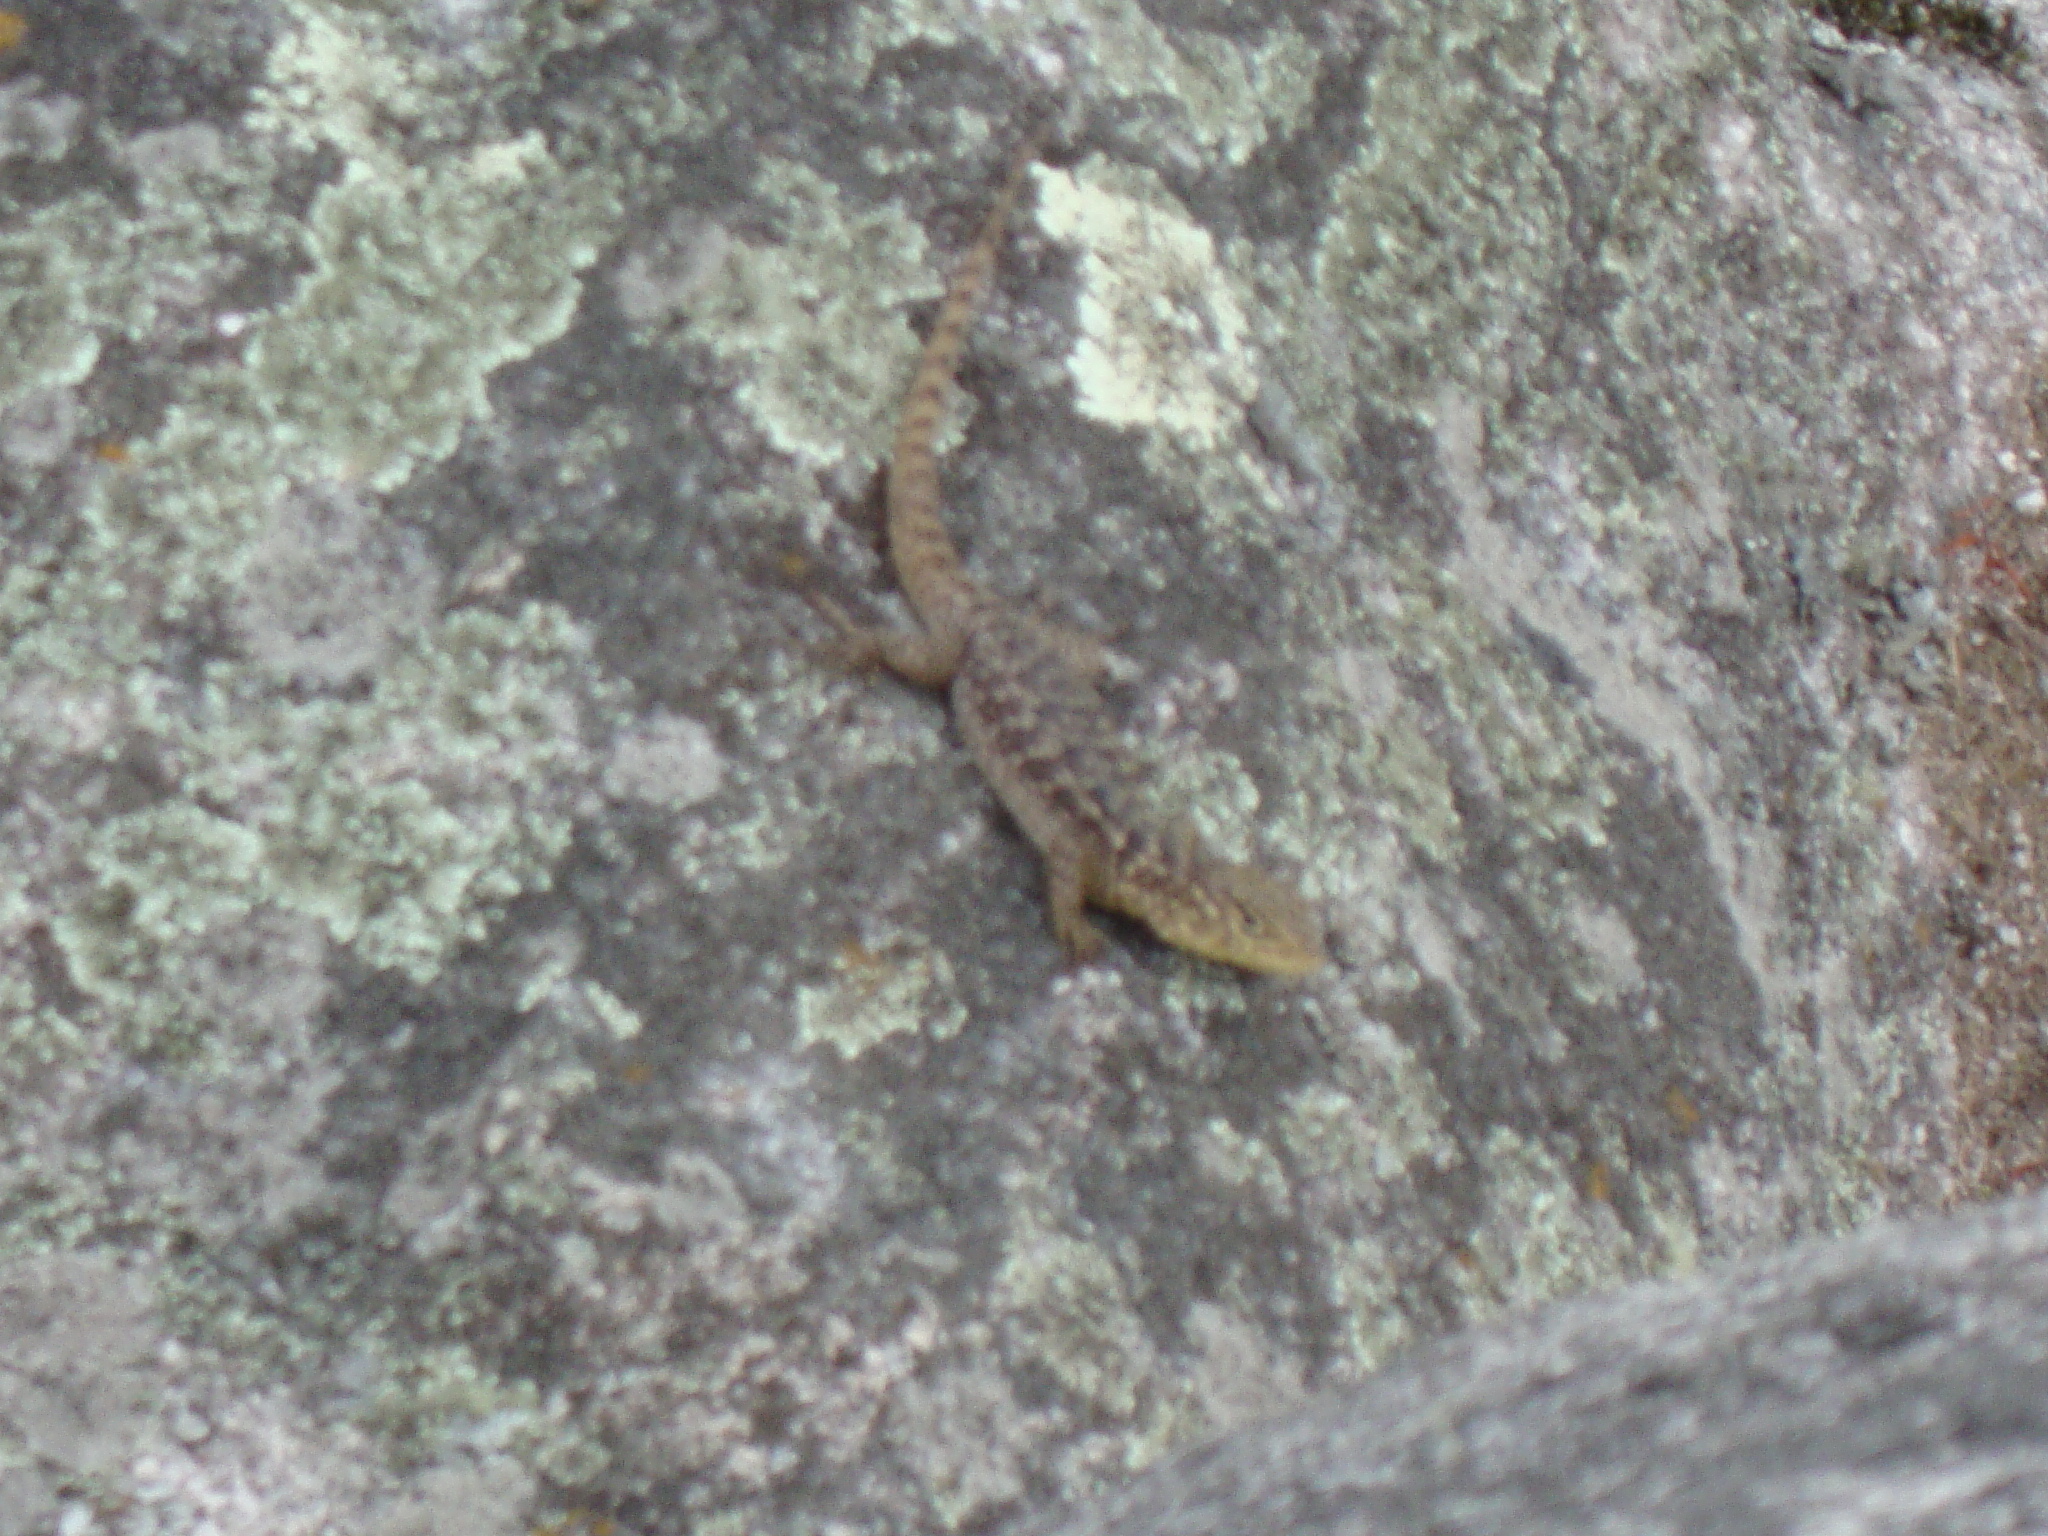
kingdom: Animalia
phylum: Chordata
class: Squamata
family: Tropiduridae
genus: Stenocercus
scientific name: Stenocercus crassicaudatus
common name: Spiny whorltail iguana
